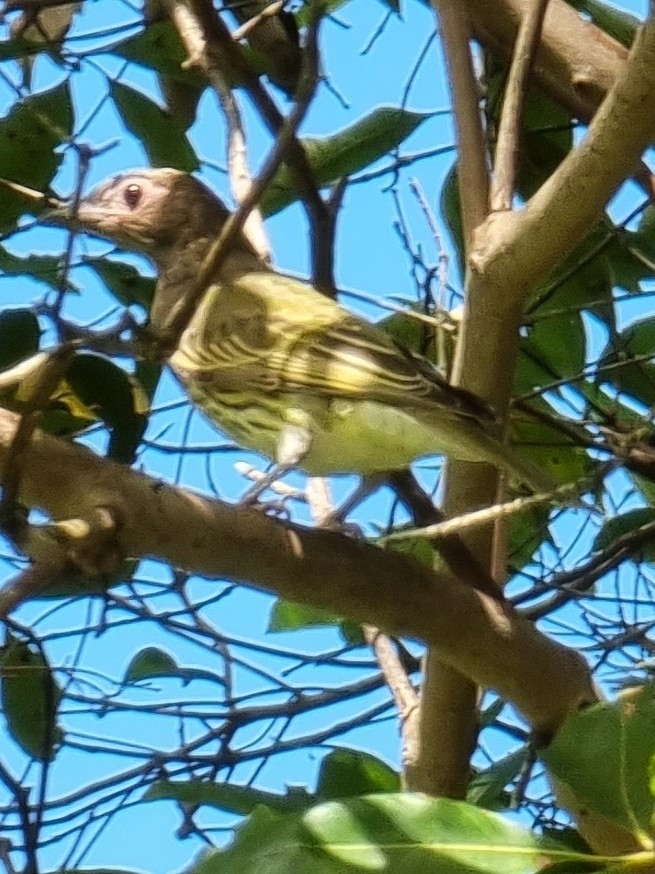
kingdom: Animalia
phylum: Chordata
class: Aves
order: Passeriformes
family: Oriolidae
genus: Sphecotheres
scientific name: Sphecotheres vieilloti
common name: Australasian figbird
